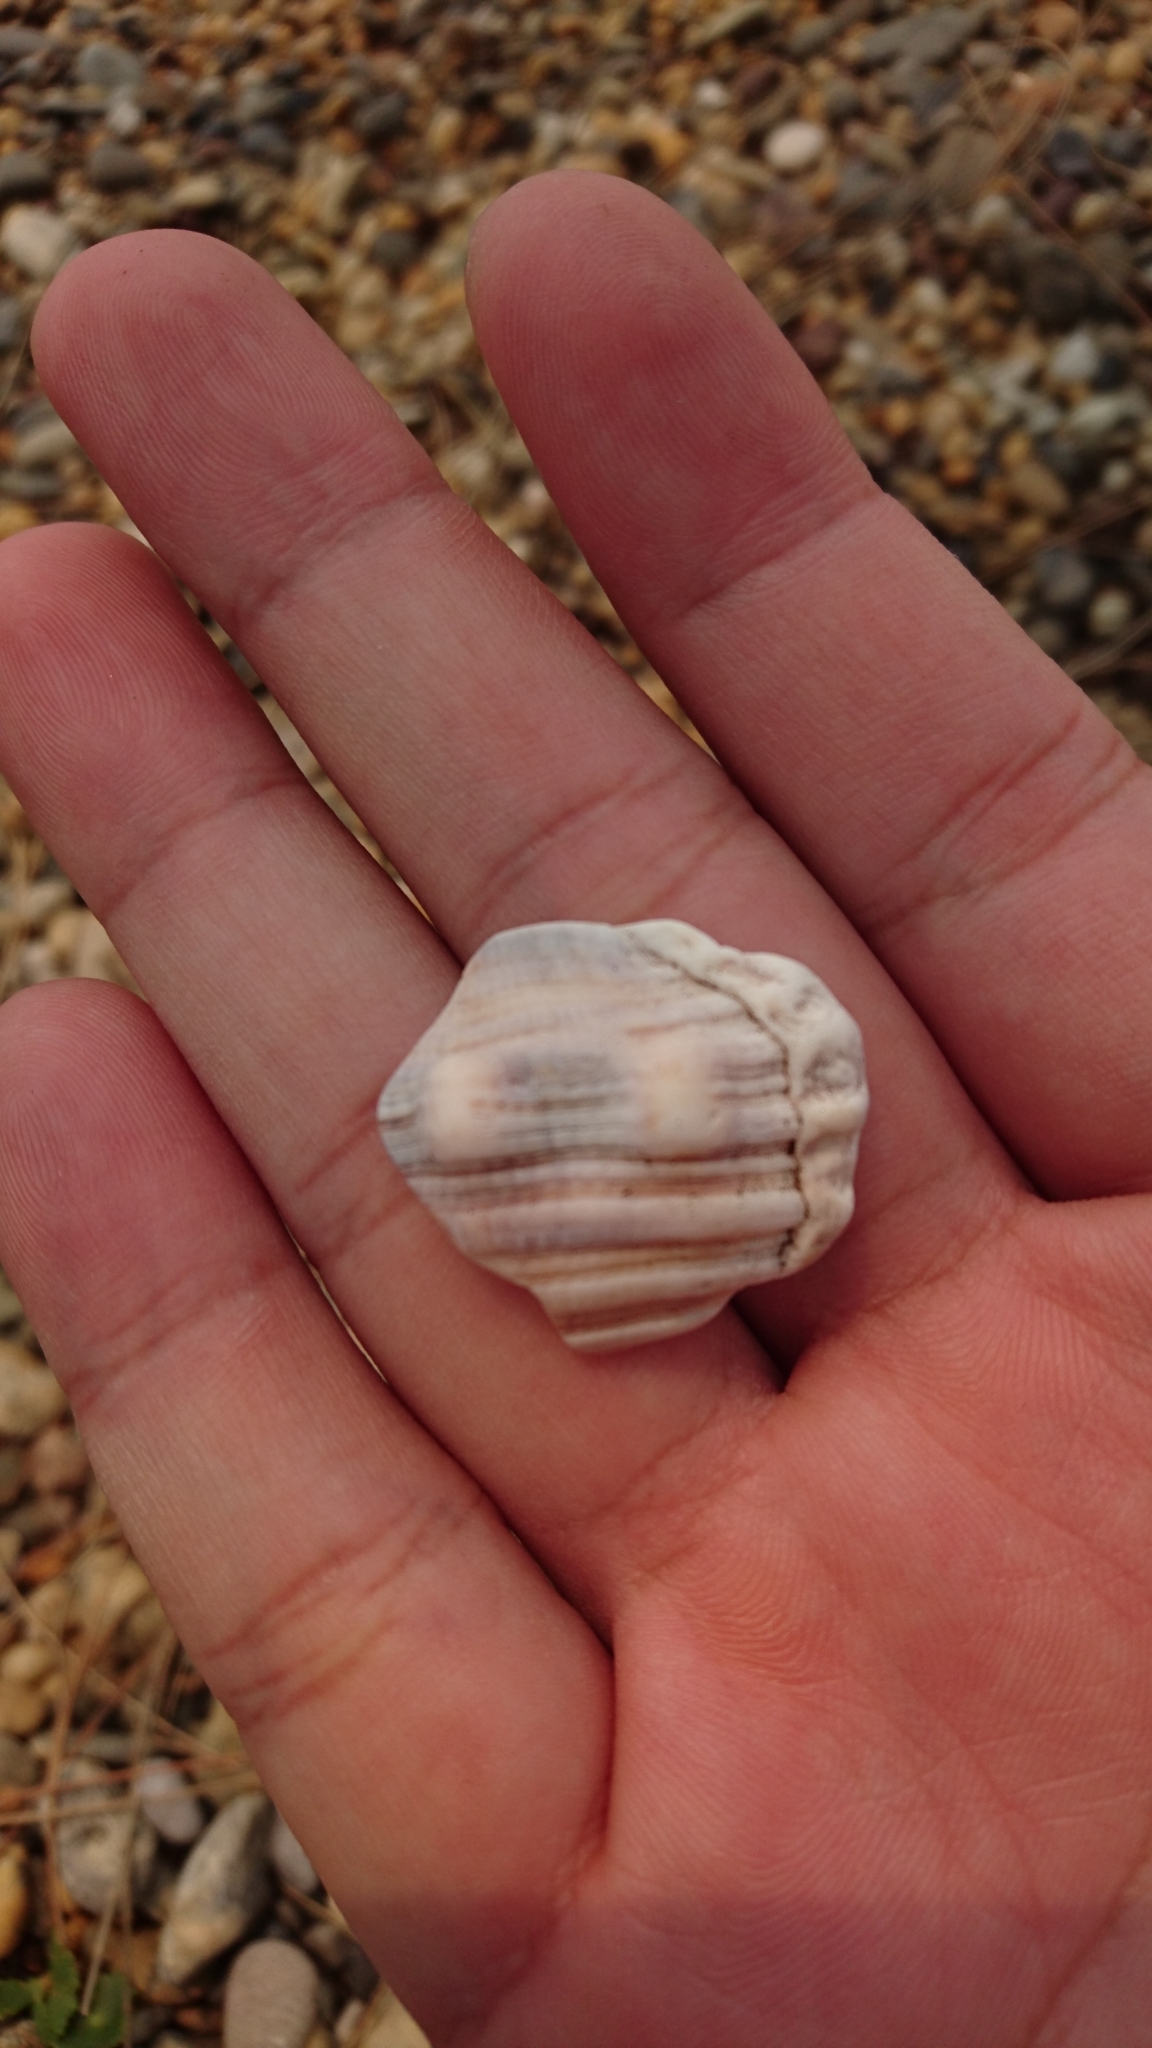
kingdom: Animalia
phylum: Mollusca
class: Gastropoda
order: Littorinimorpha
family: Cymatiidae
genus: Cabestana
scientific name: Cabestana spengleri
